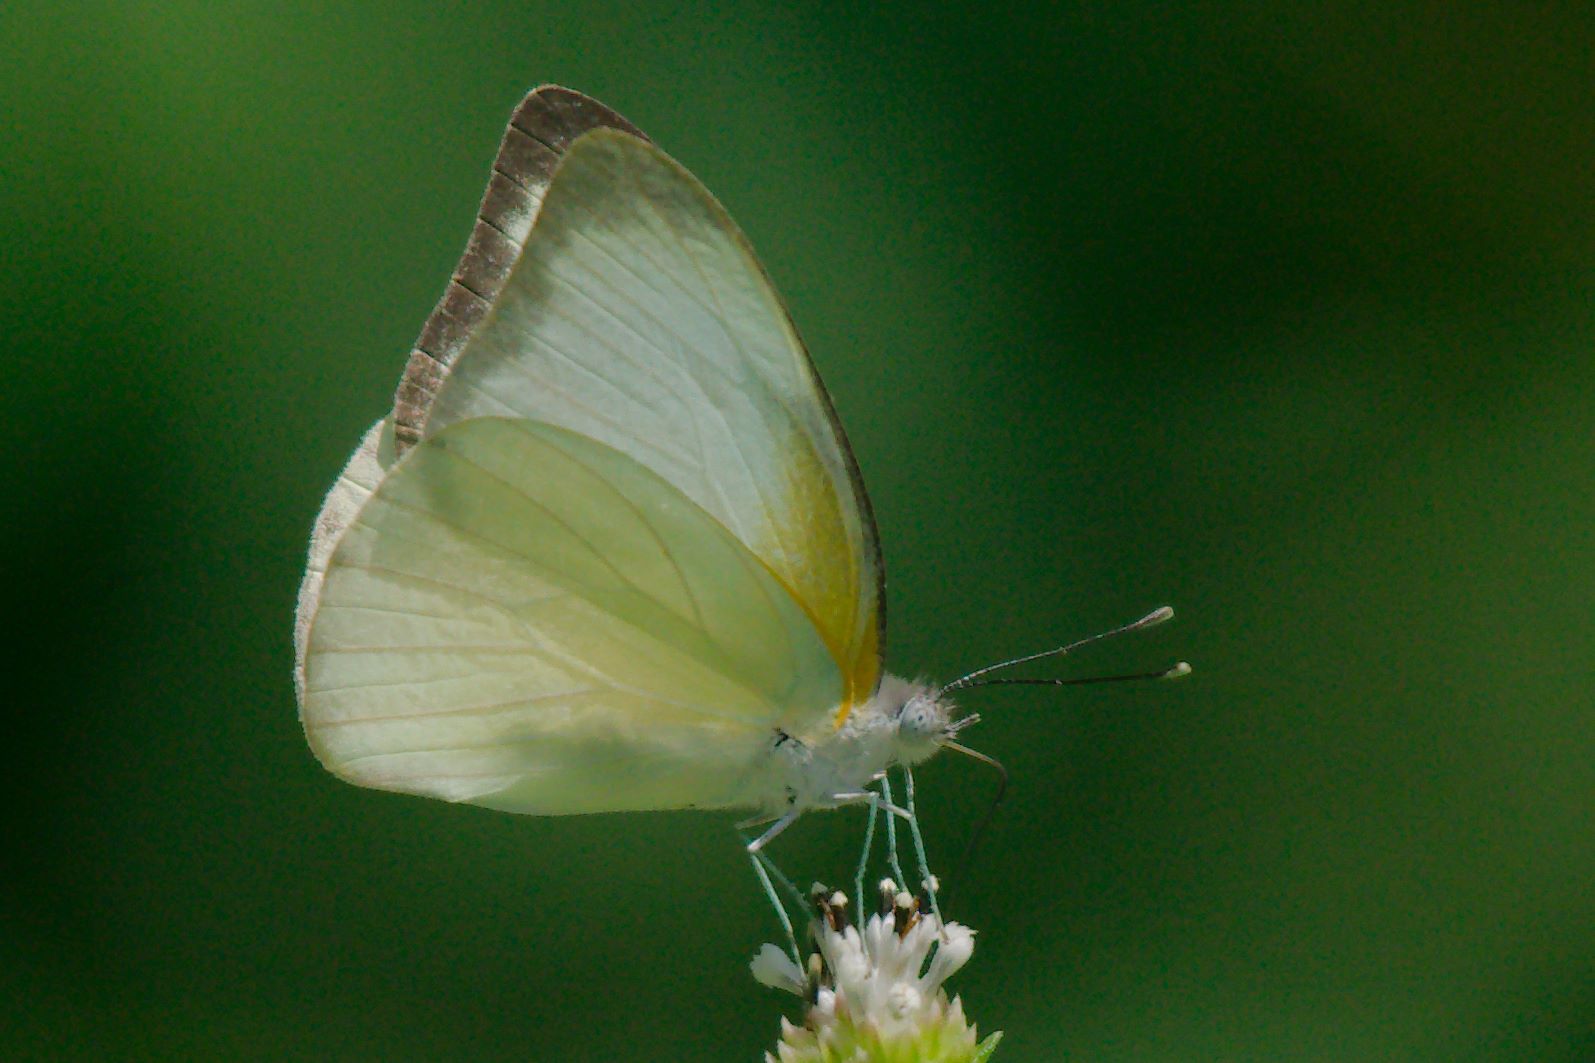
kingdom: Animalia
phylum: Arthropoda
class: Insecta
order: Lepidoptera
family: Pieridae
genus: Glutophrissa
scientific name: Glutophrissa drusilla
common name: Florida white
